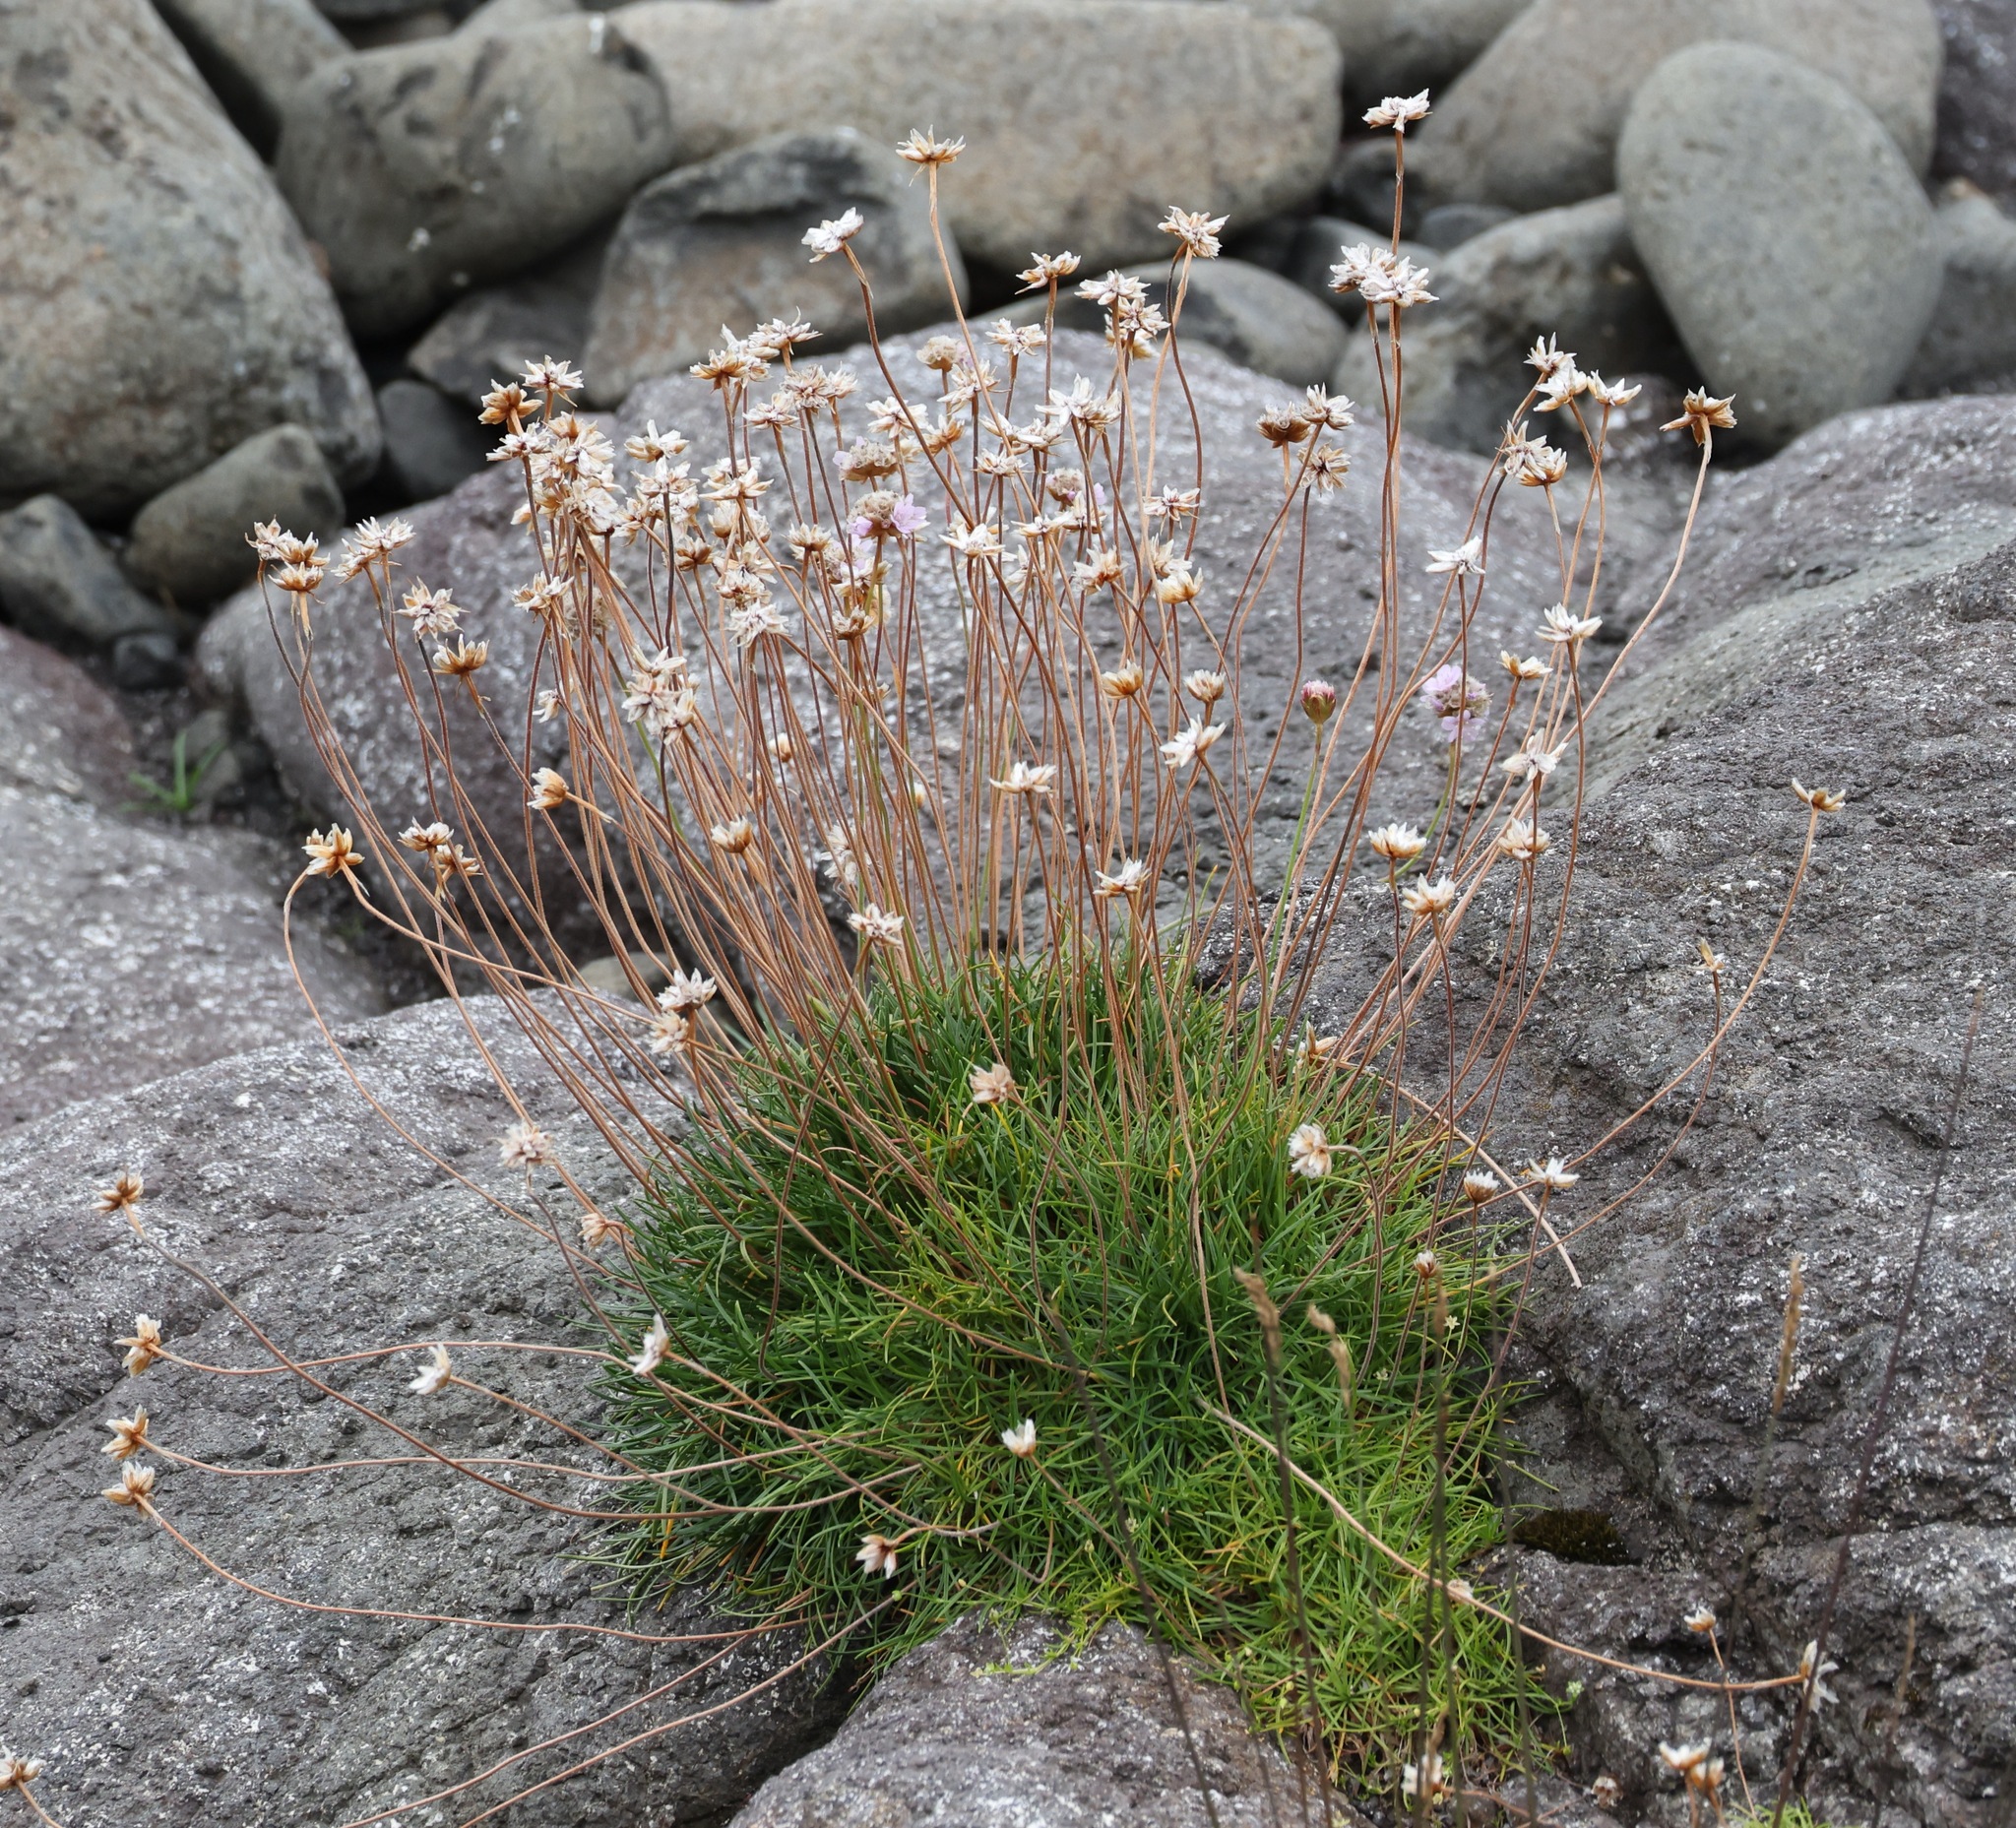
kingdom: Plantae
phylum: Tracheophyta
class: Magnoliopsida
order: Caryophyllales
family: Plumbaginaceae
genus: Armeria
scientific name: Armeria maritima
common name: Thrift
